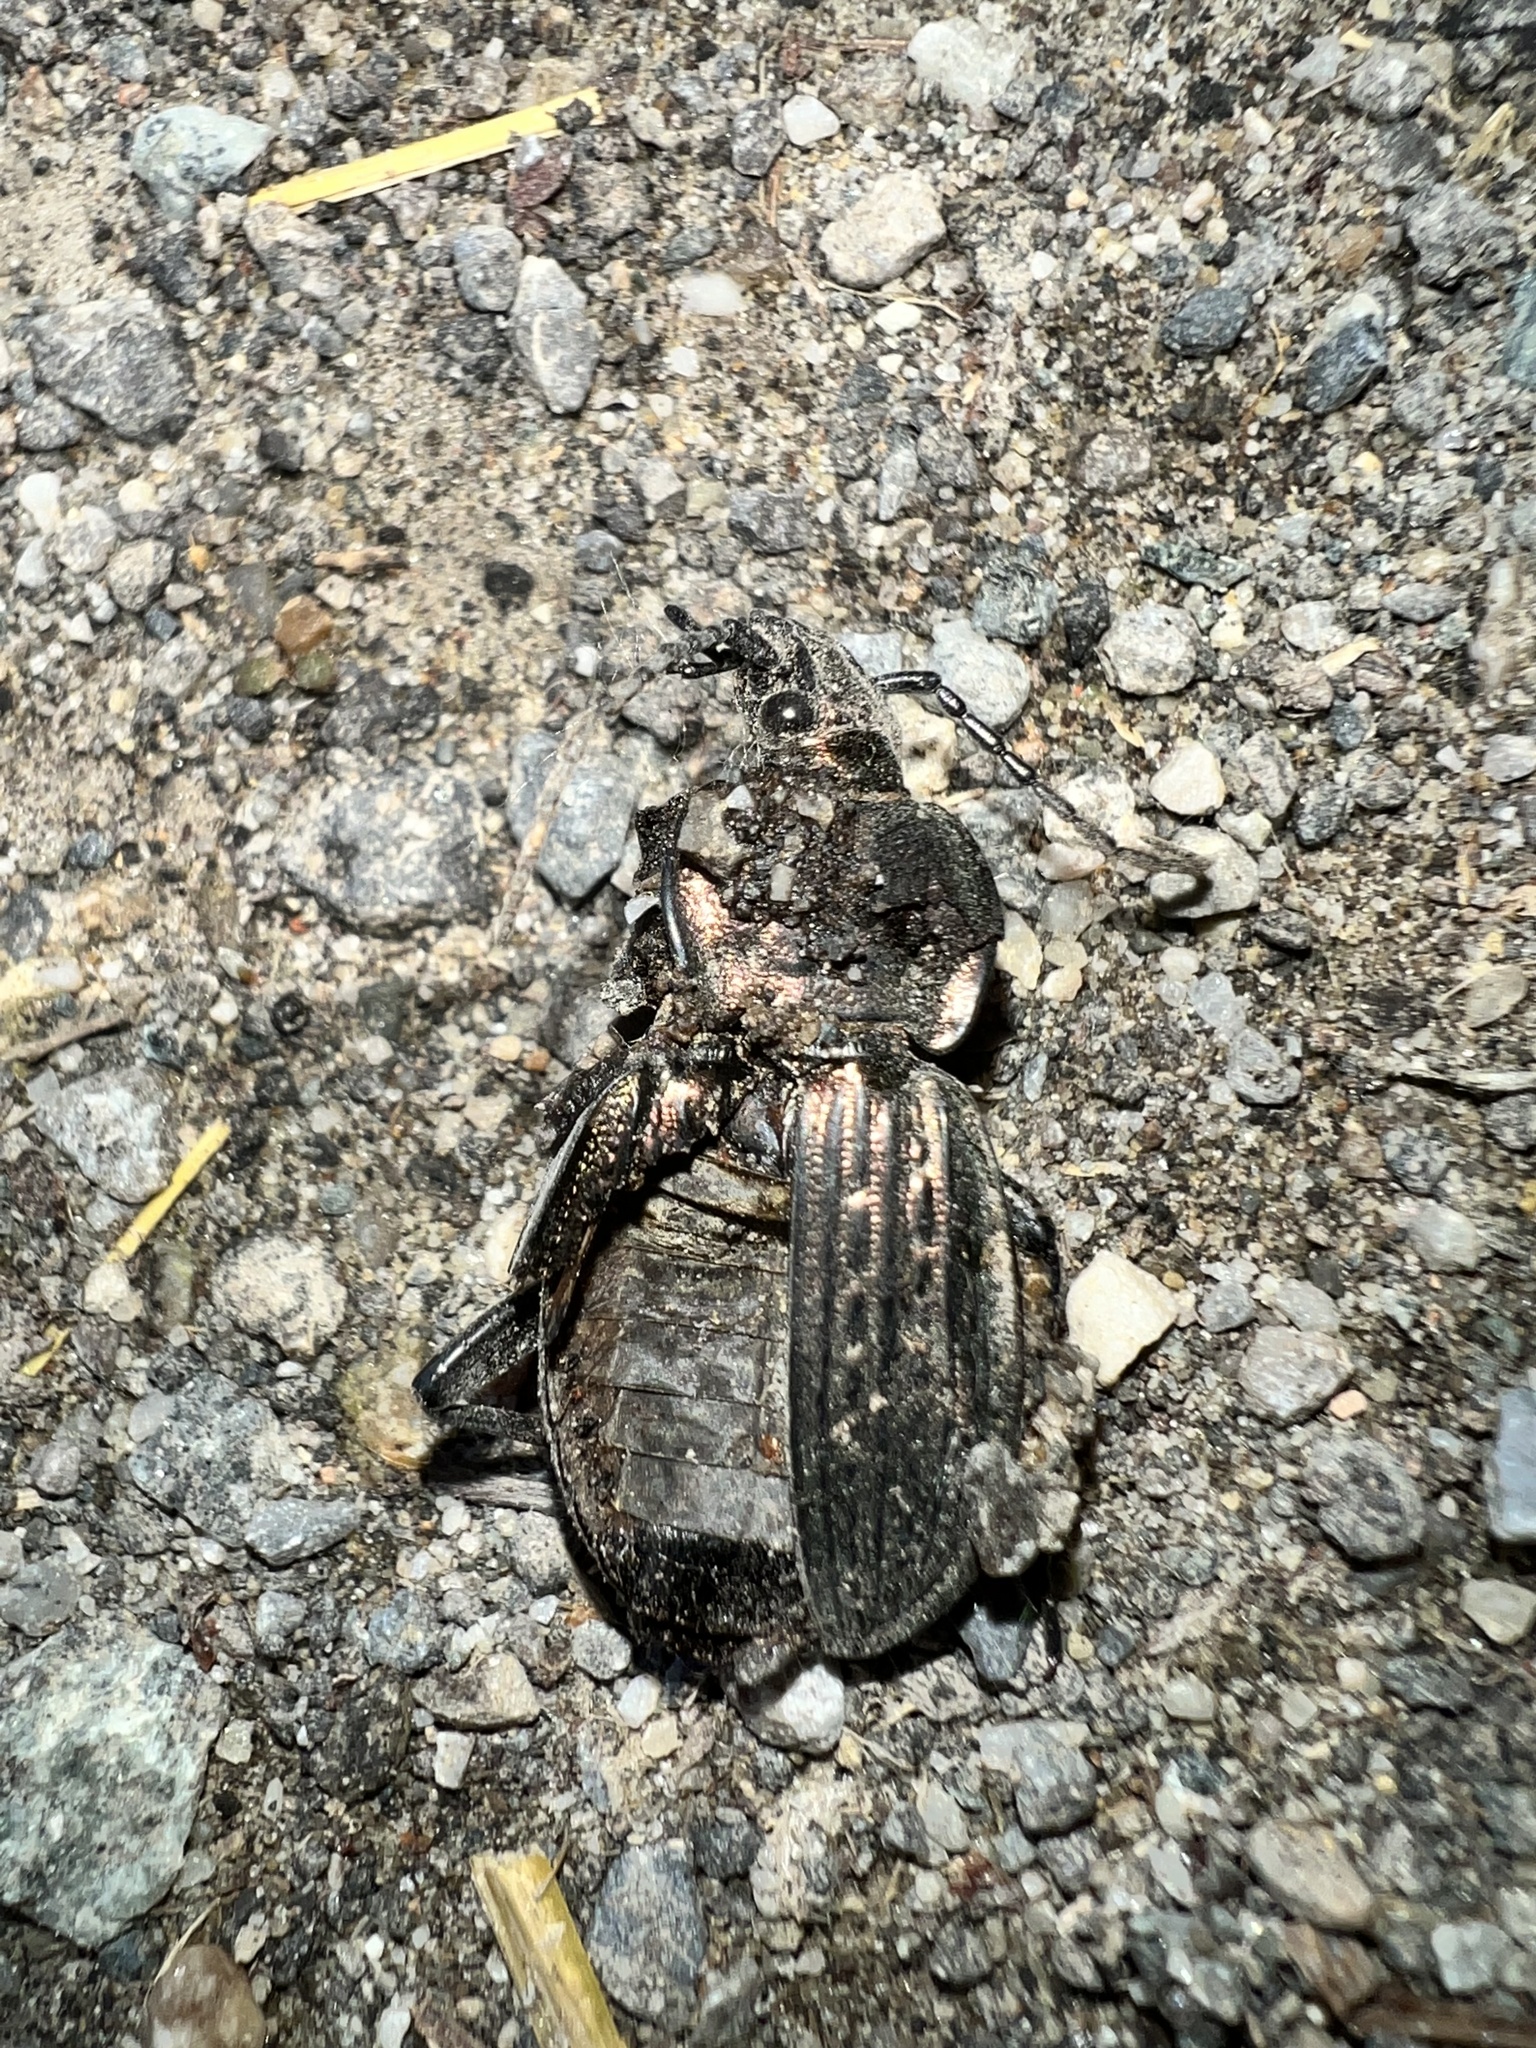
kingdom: Animalia
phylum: Arthropoda
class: Insecta
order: Coleoptera
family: Carabidae
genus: Carabus
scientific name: Carabus ulrichii
